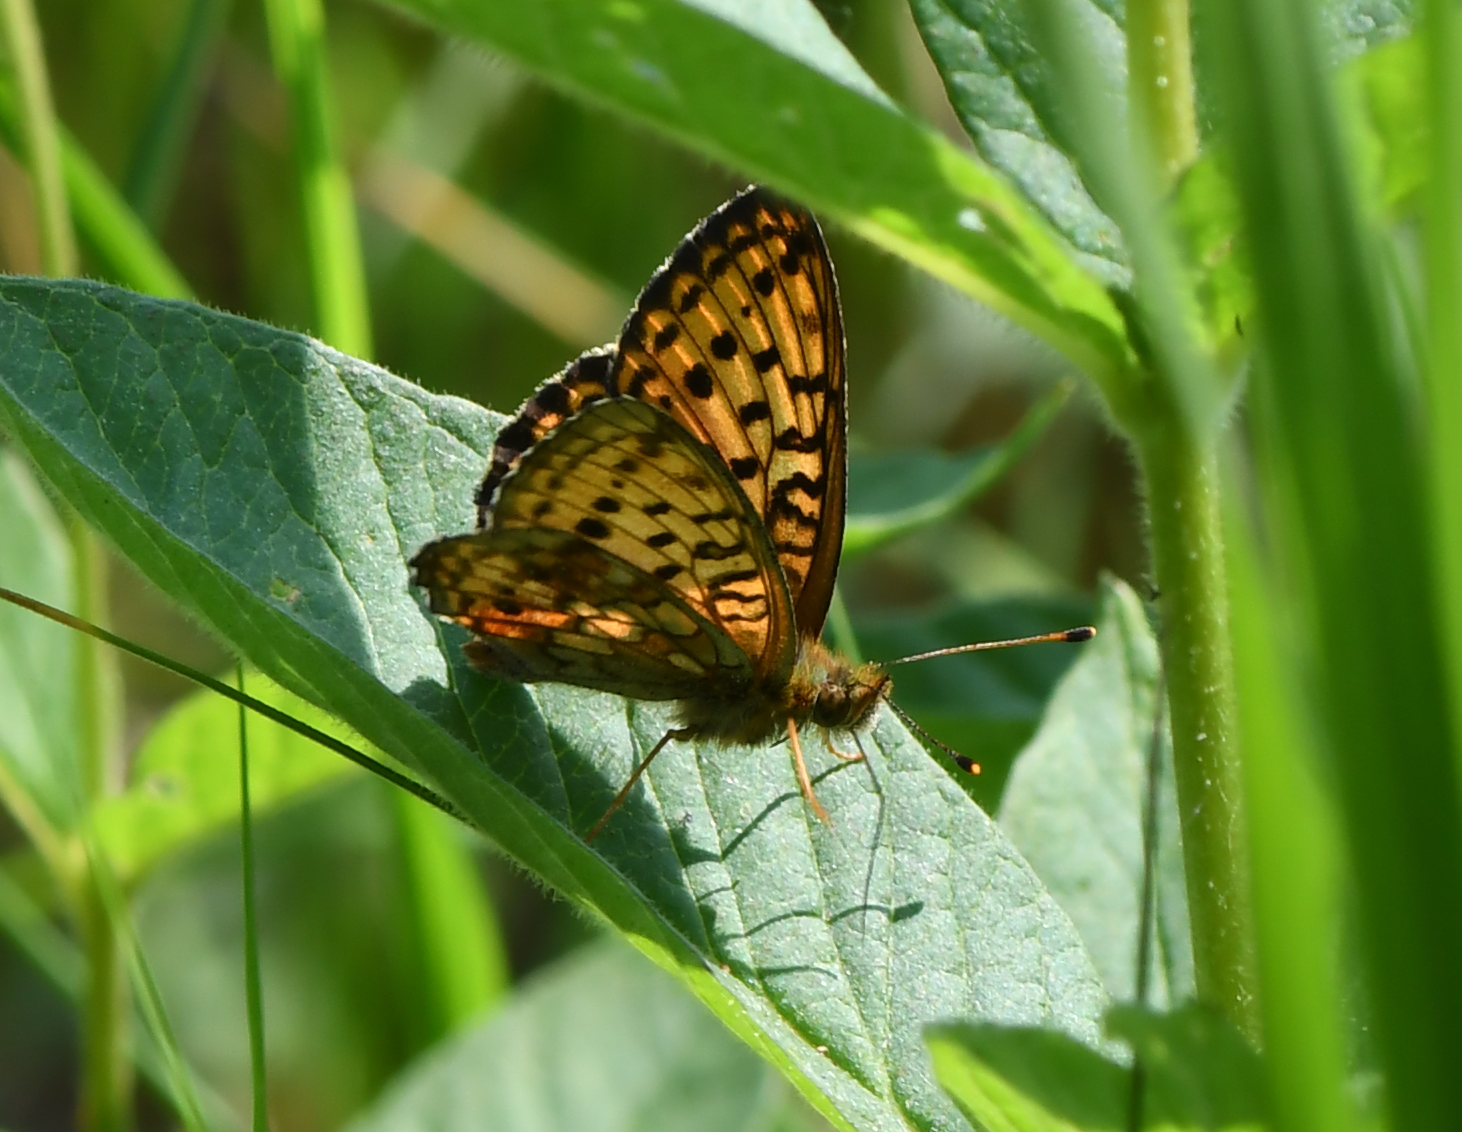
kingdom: Animalia
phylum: Arthropoda
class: Insecta
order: Lepidoptera
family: Nymphalidae
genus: Brenthis
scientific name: Brenthis ino
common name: Lesser marbled fritillary
